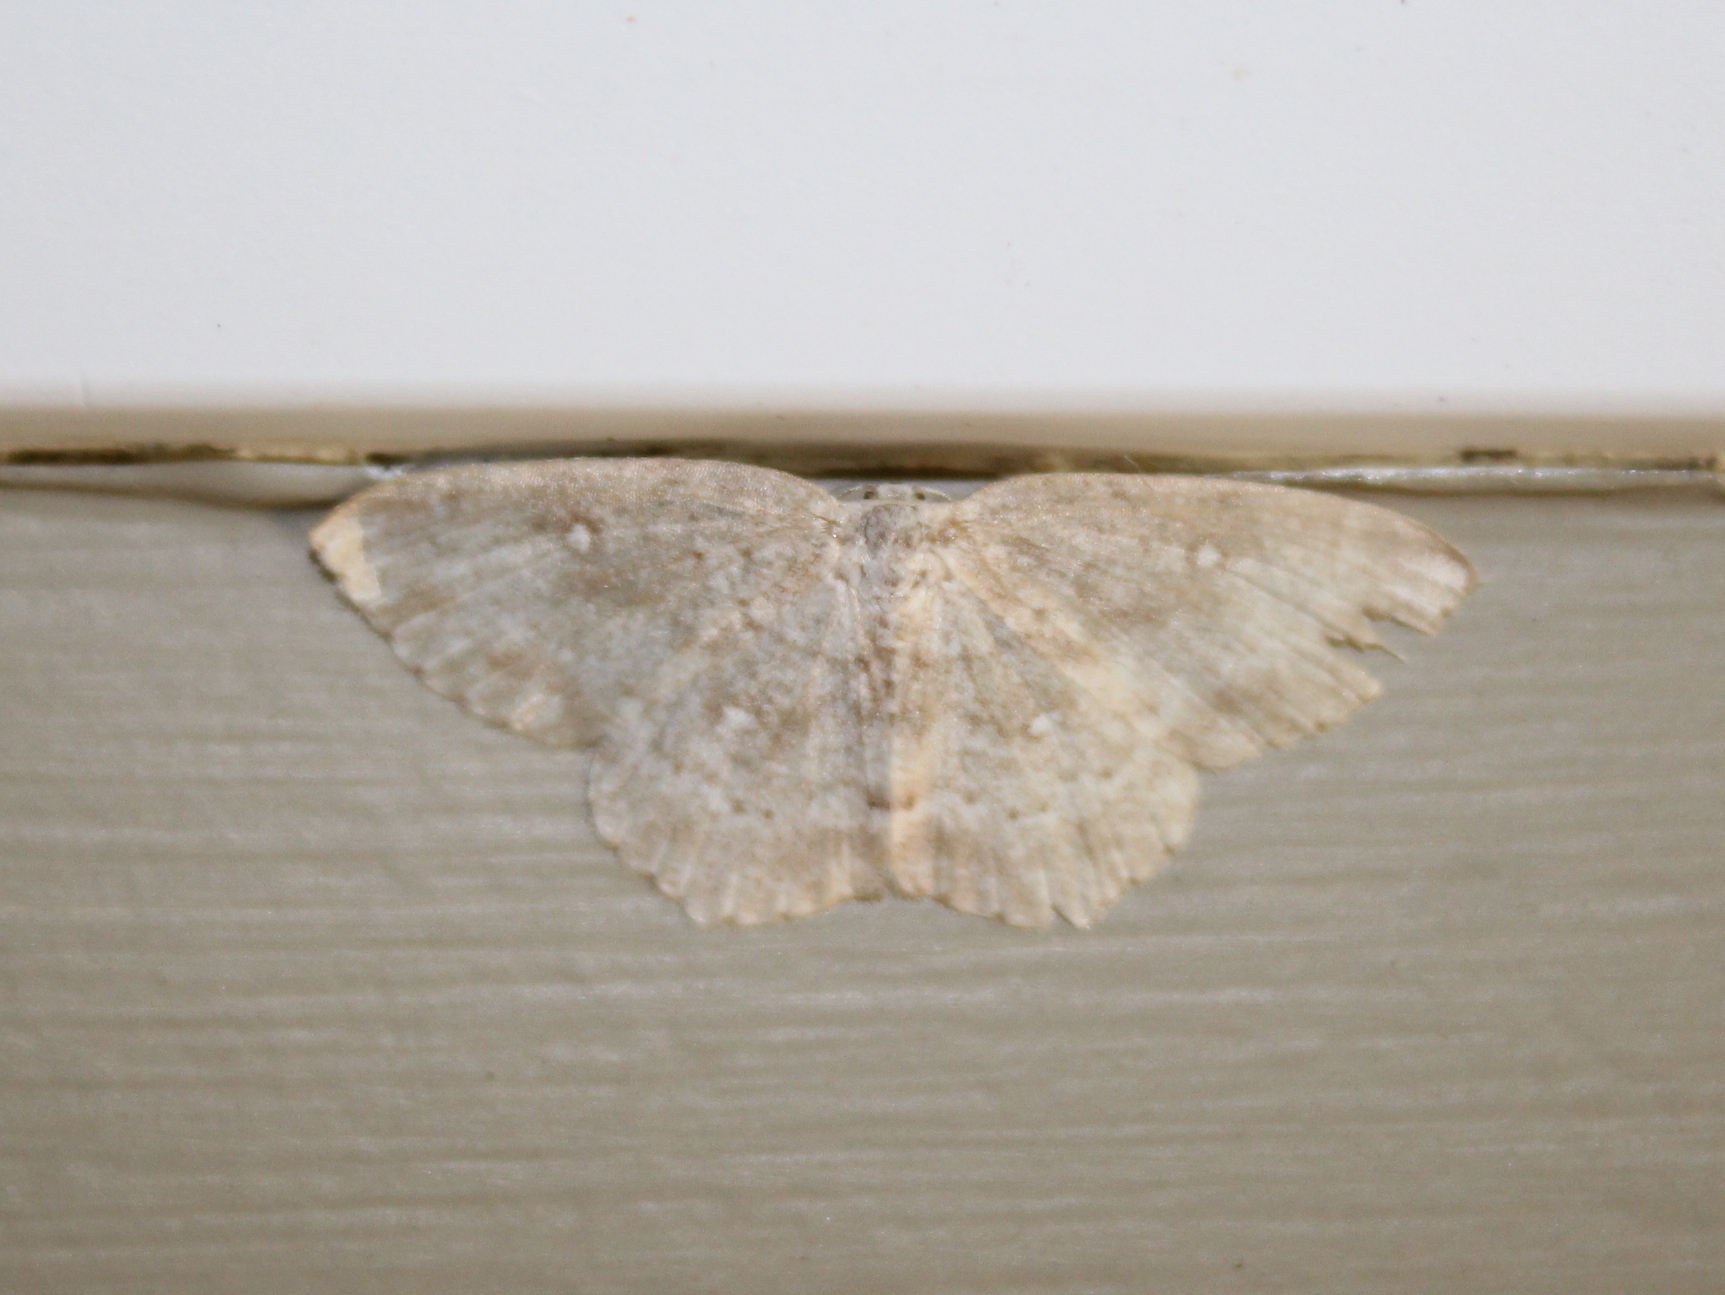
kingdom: Animalia
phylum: Arthropoda
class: Insecta
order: Lepidoptera
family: Geometridae
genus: Cyclophora
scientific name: Cyclophora pendulinaria
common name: Sweet fern geometer
